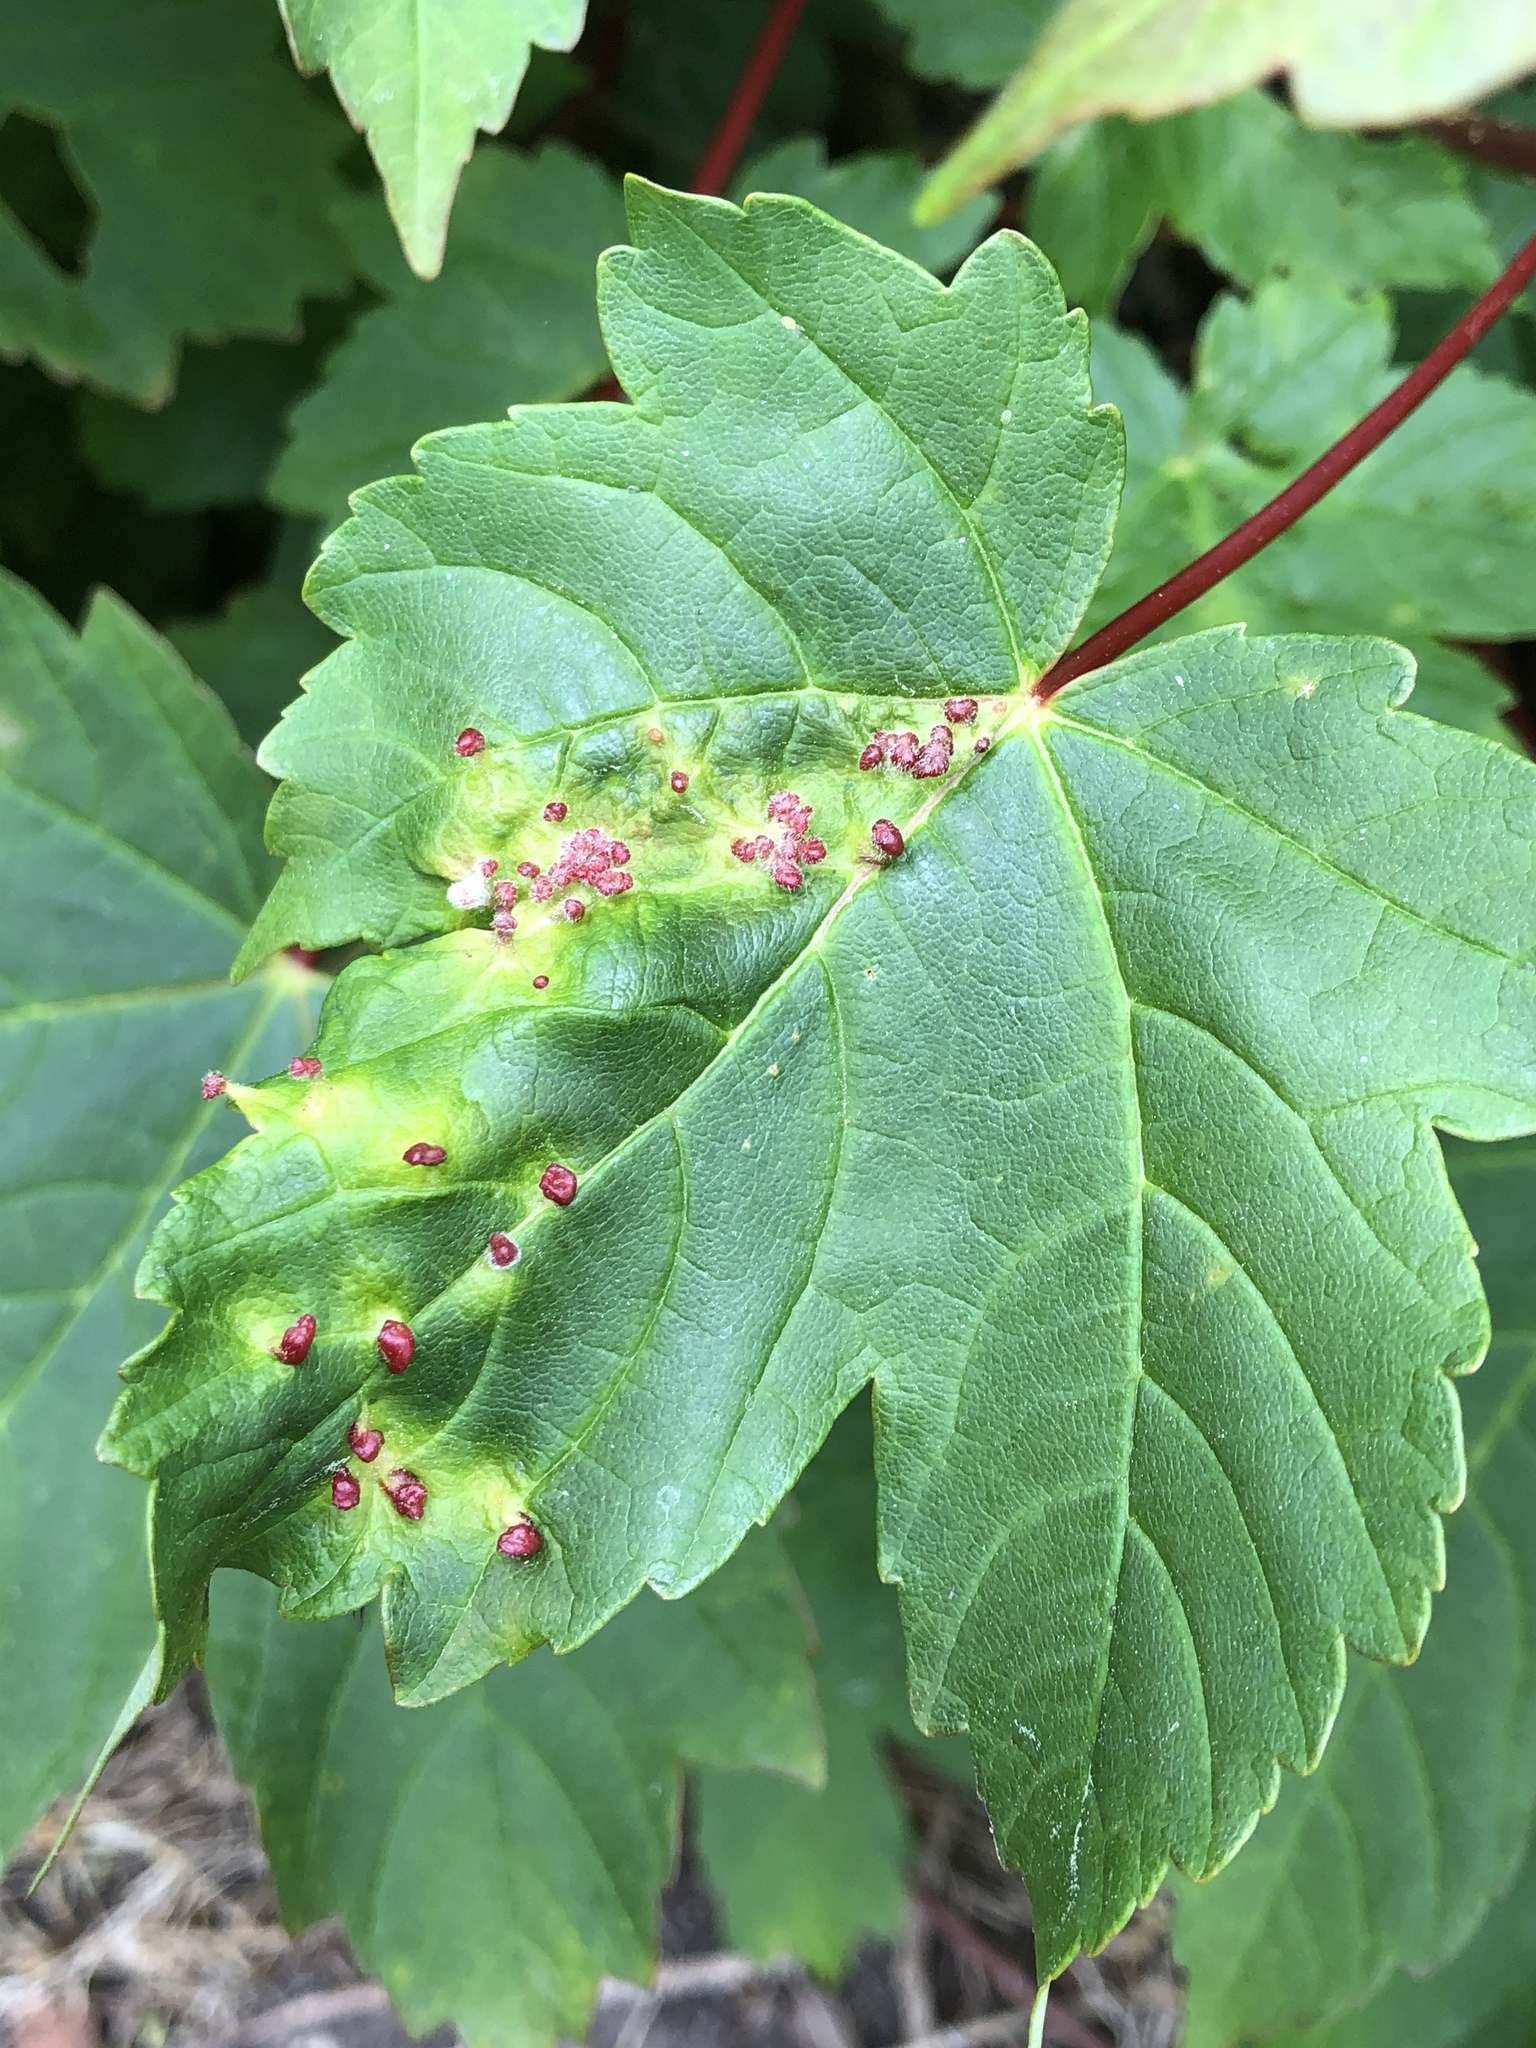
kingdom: Animalia
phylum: Arthropoda
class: Arachnida
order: Trombidiformes
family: Eriophyidae
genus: Aceria
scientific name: Aceria cephaloneus
